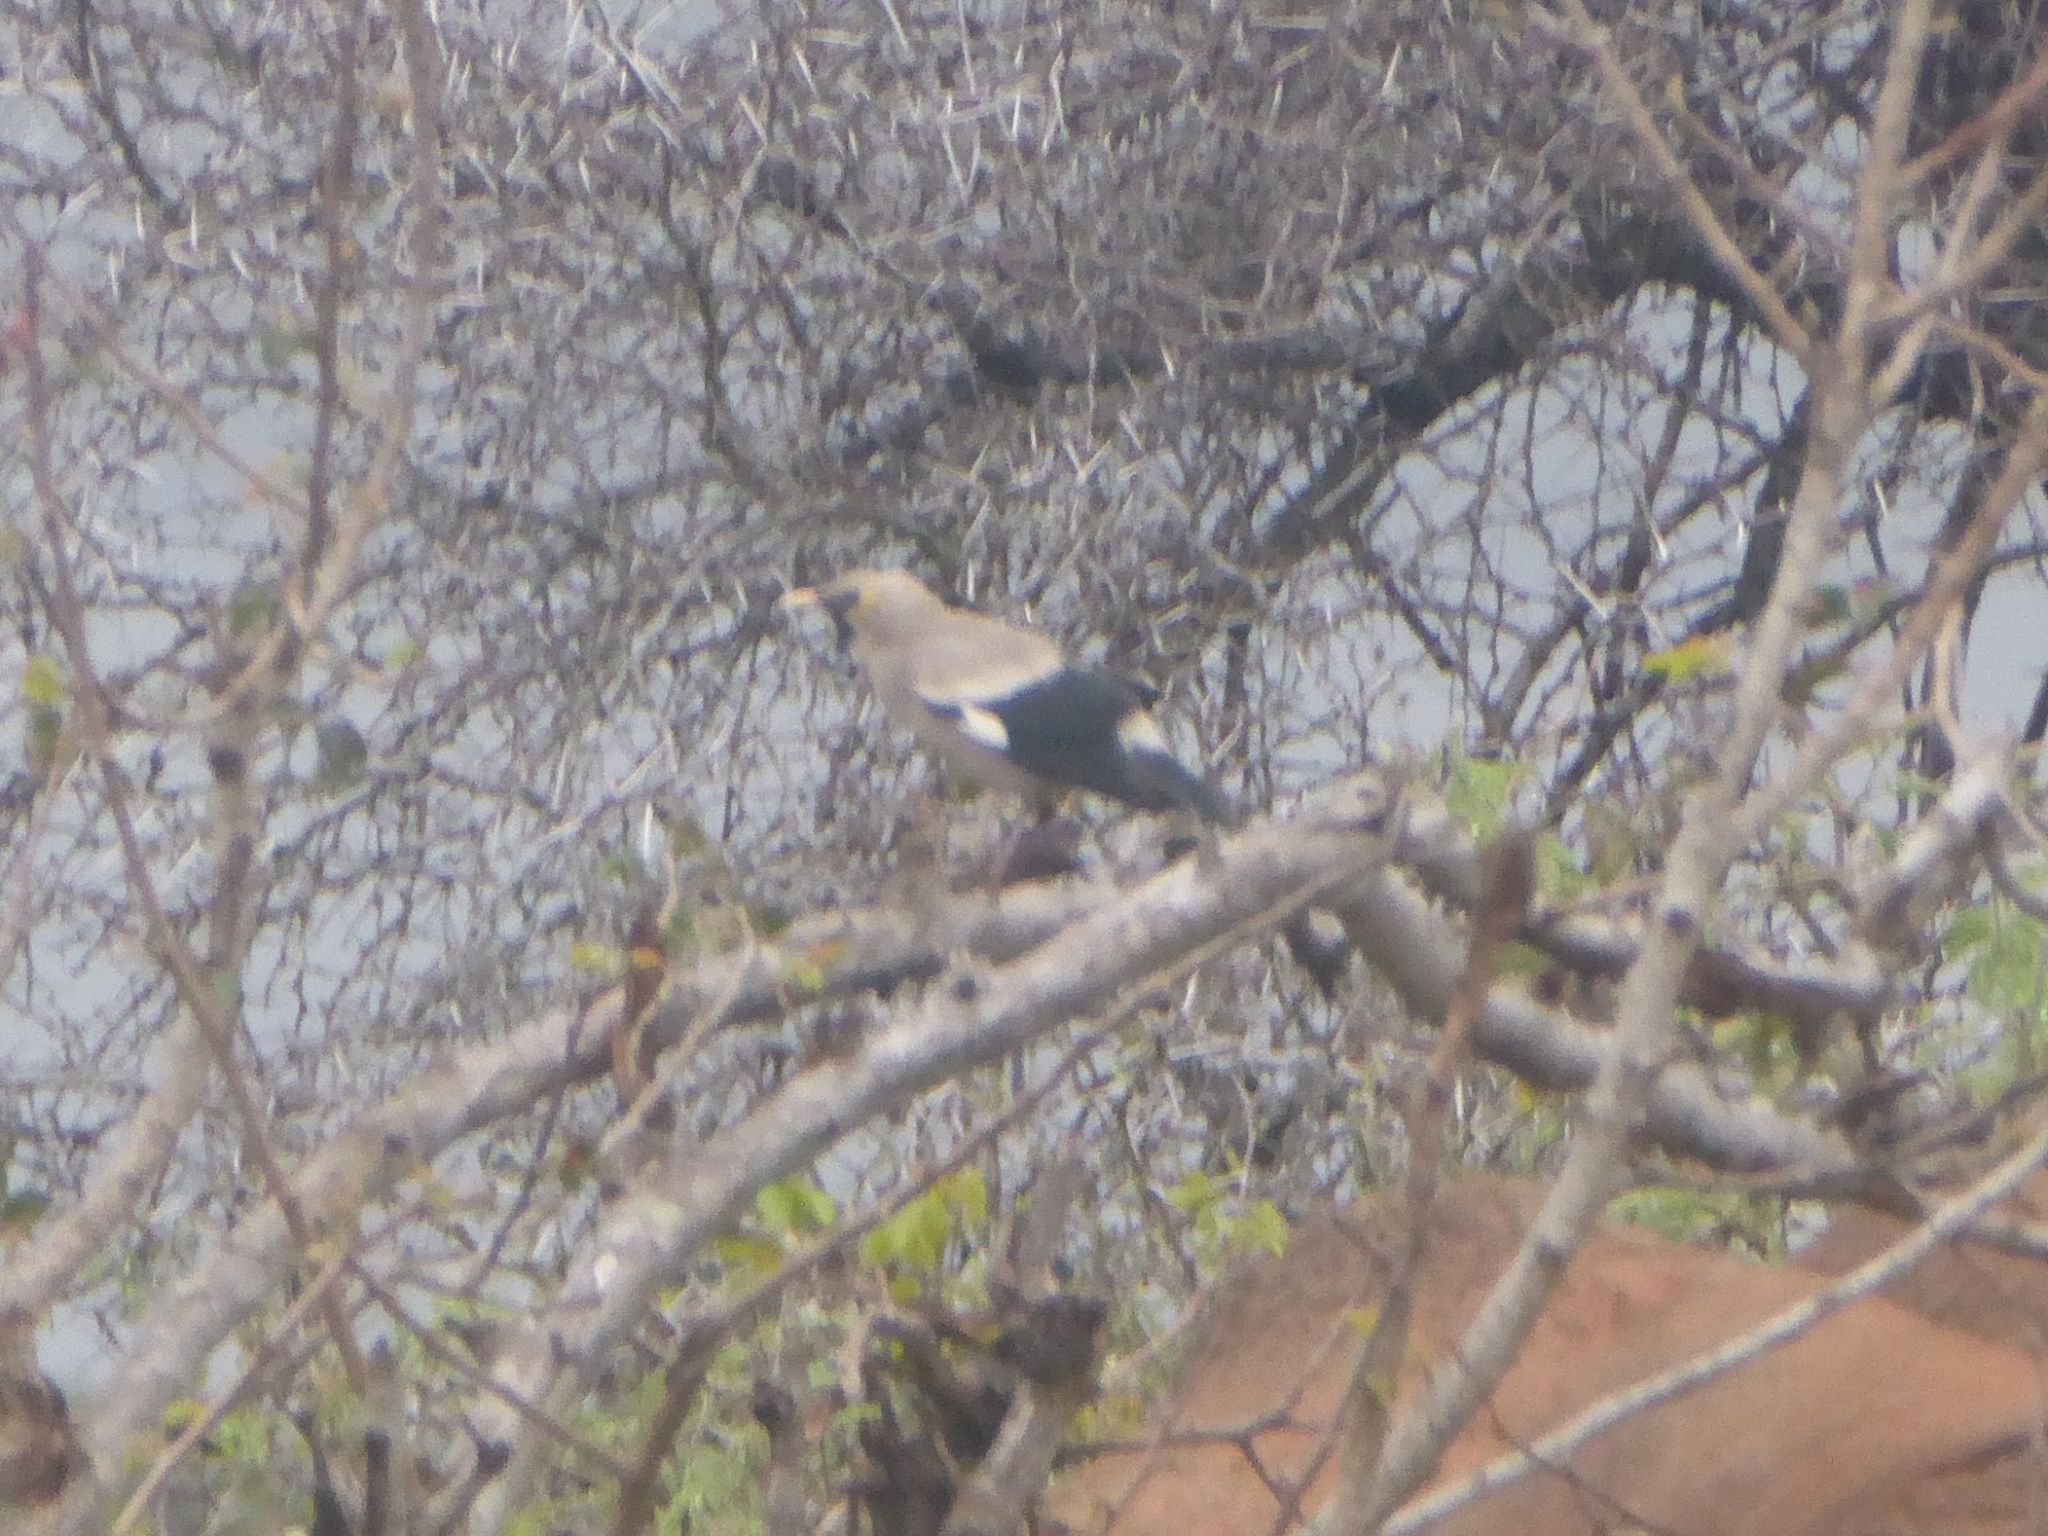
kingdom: Animalia
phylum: Chordata
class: Aves
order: Passeriformes
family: Sturnidae
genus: Creatophora
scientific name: Creatophora cinerea
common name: Wattled starling
